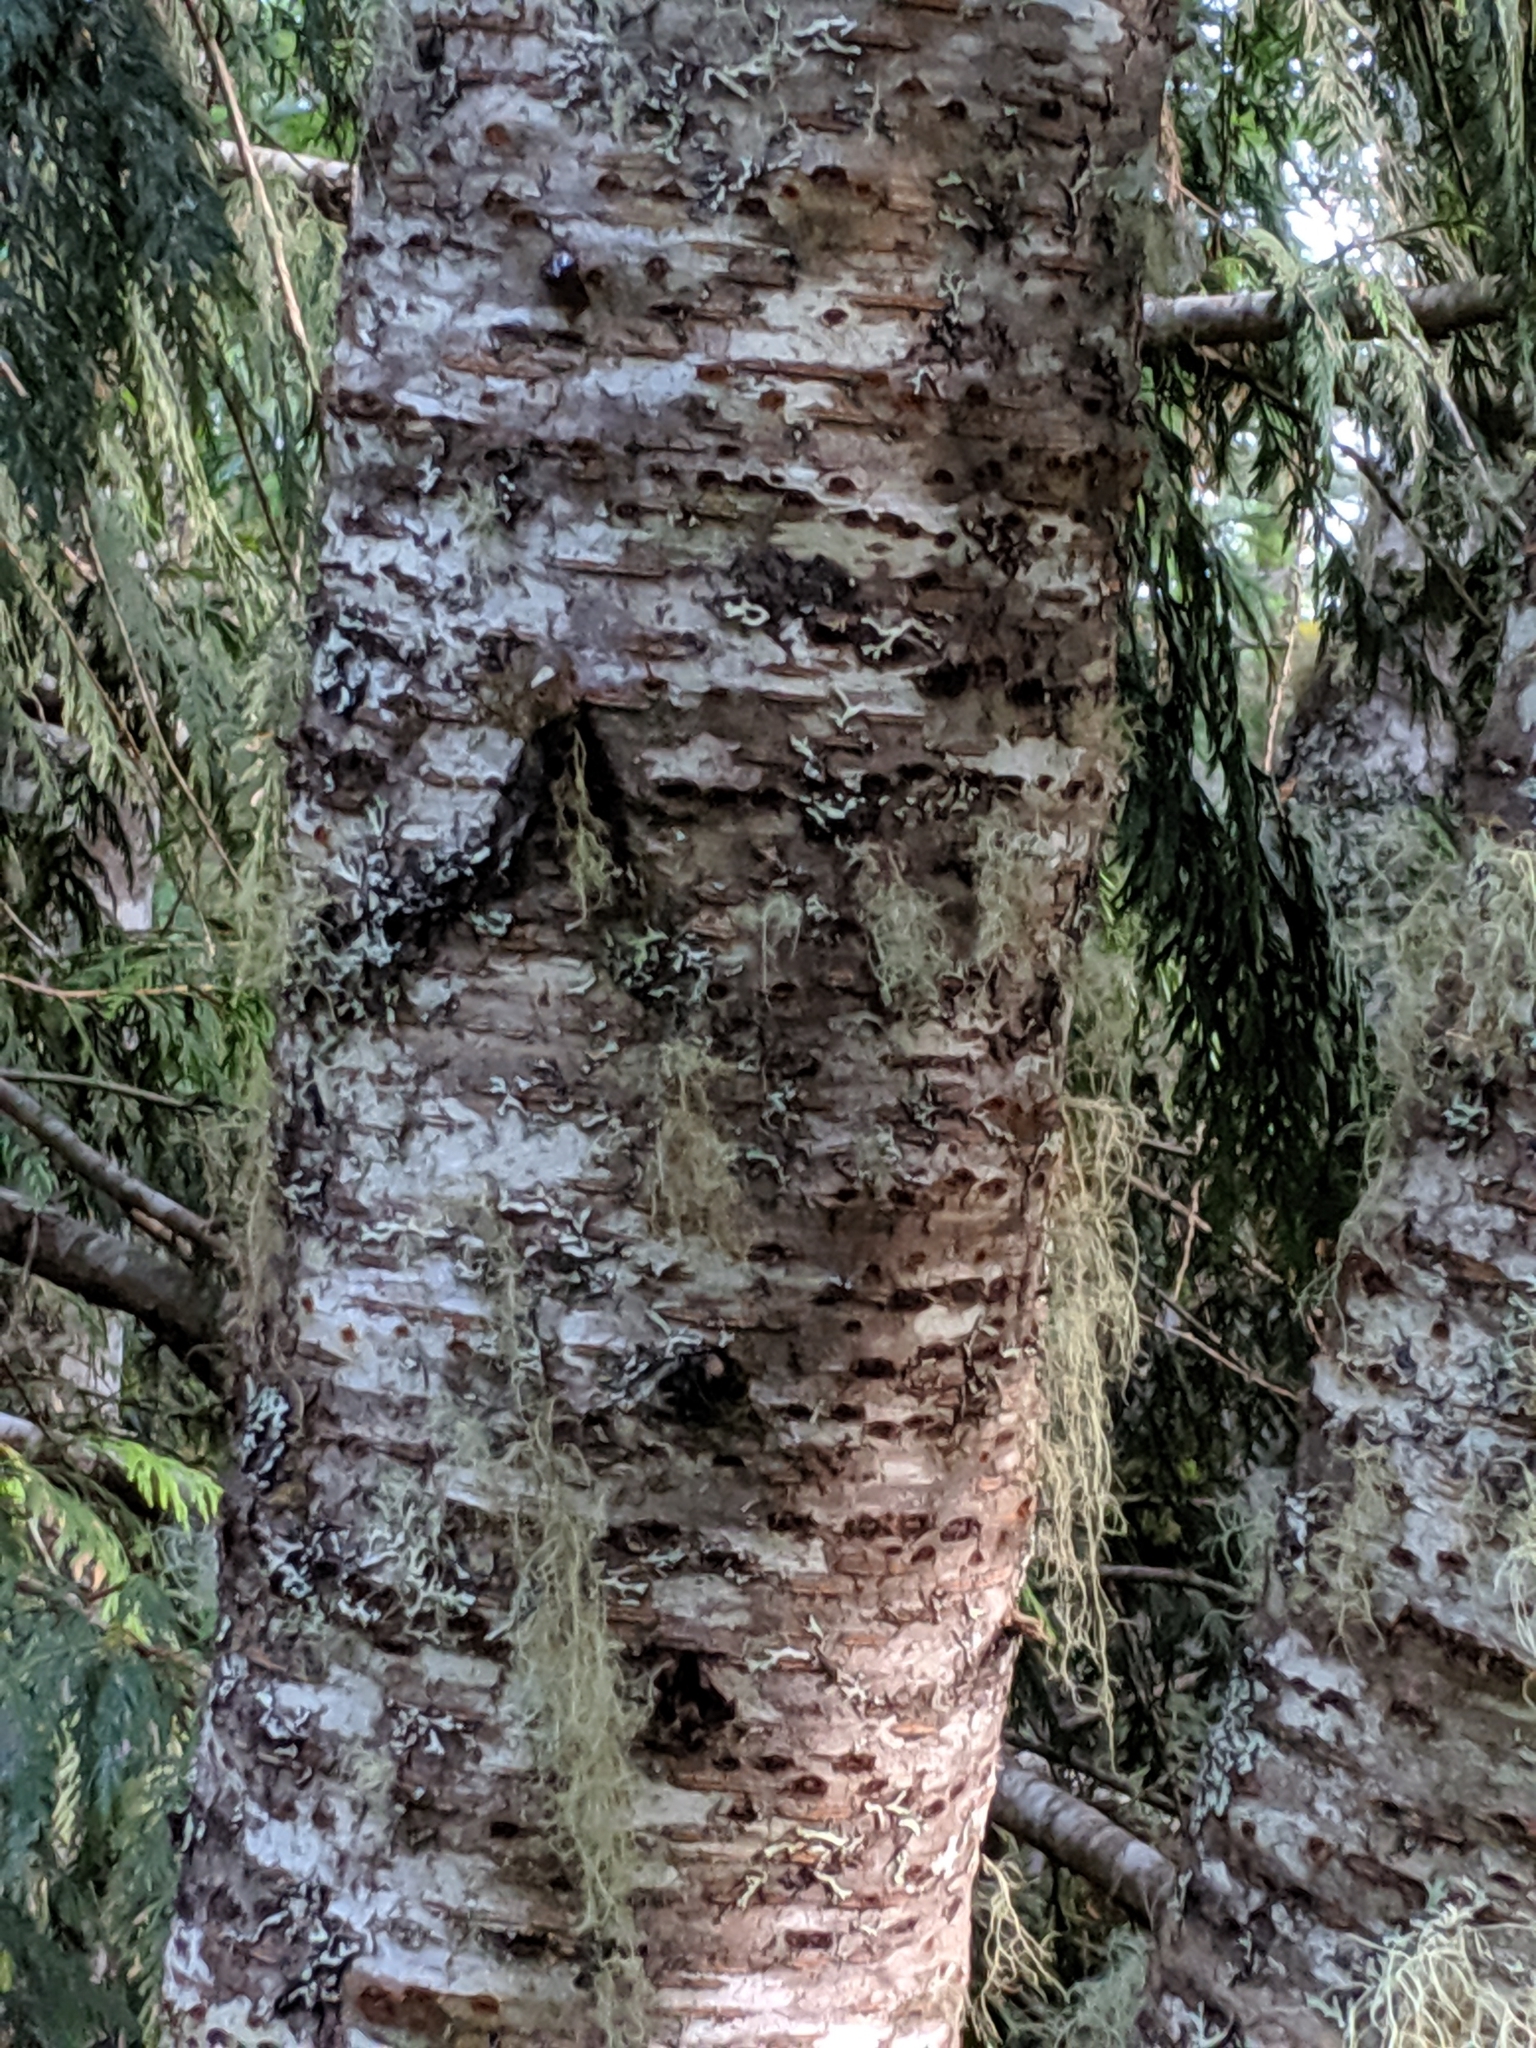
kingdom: Plantae
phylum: Tracheophyta
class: Magnoliopsida
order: Rosales
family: Rosaceae
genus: Prunus
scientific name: Prunus emarginata
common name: Bitter cherry
